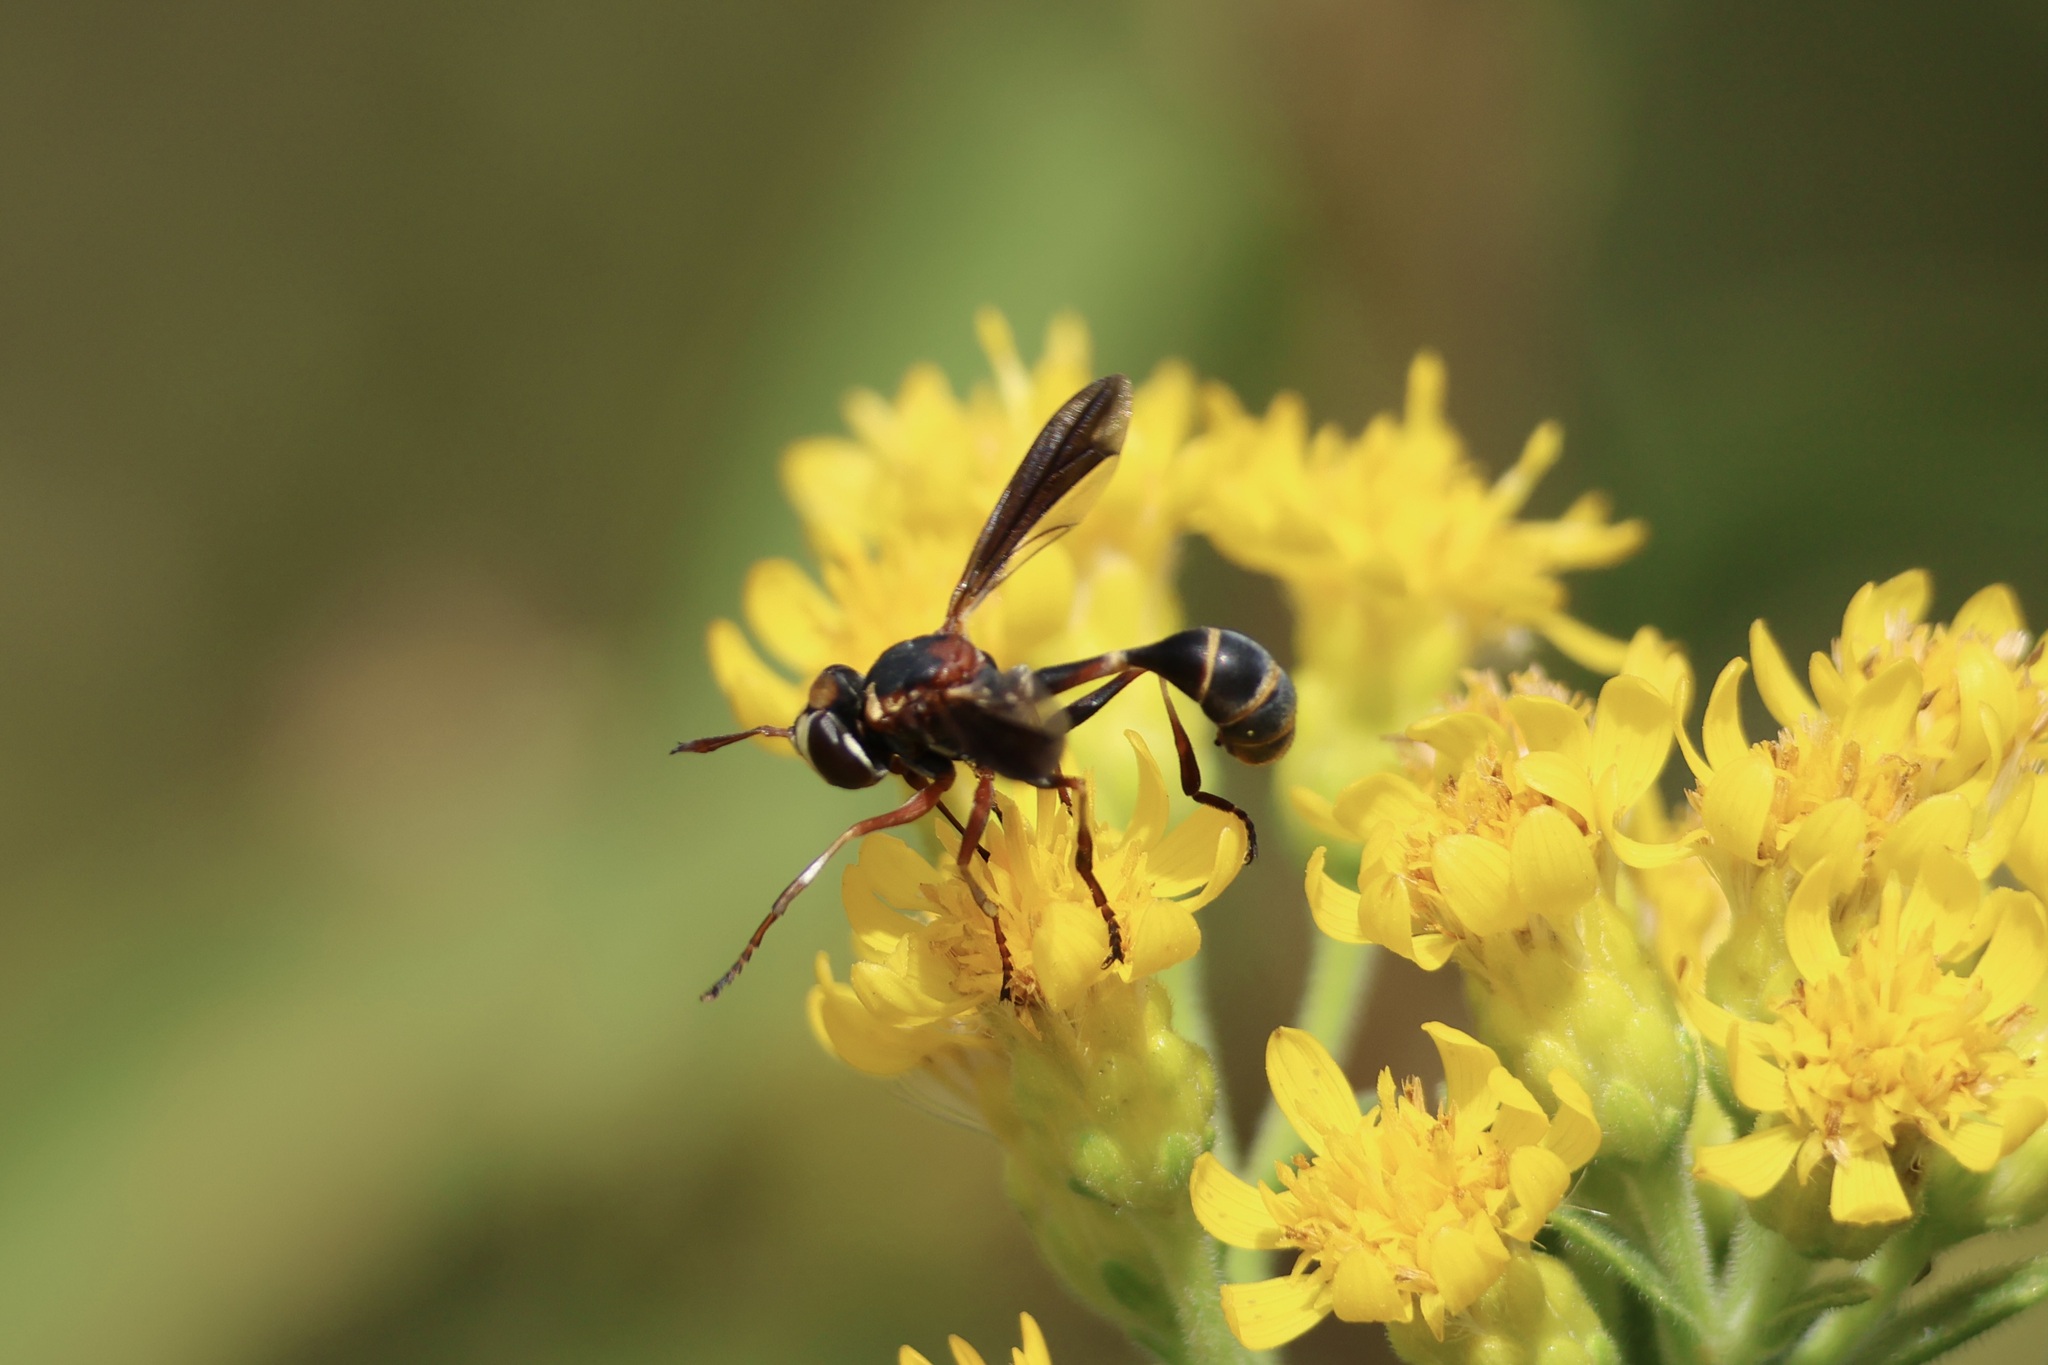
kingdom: Animalia
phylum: Arthropoda
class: Insecta
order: Diptera
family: Conopidae
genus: Physocephala
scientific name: Physocephala sagittaria
